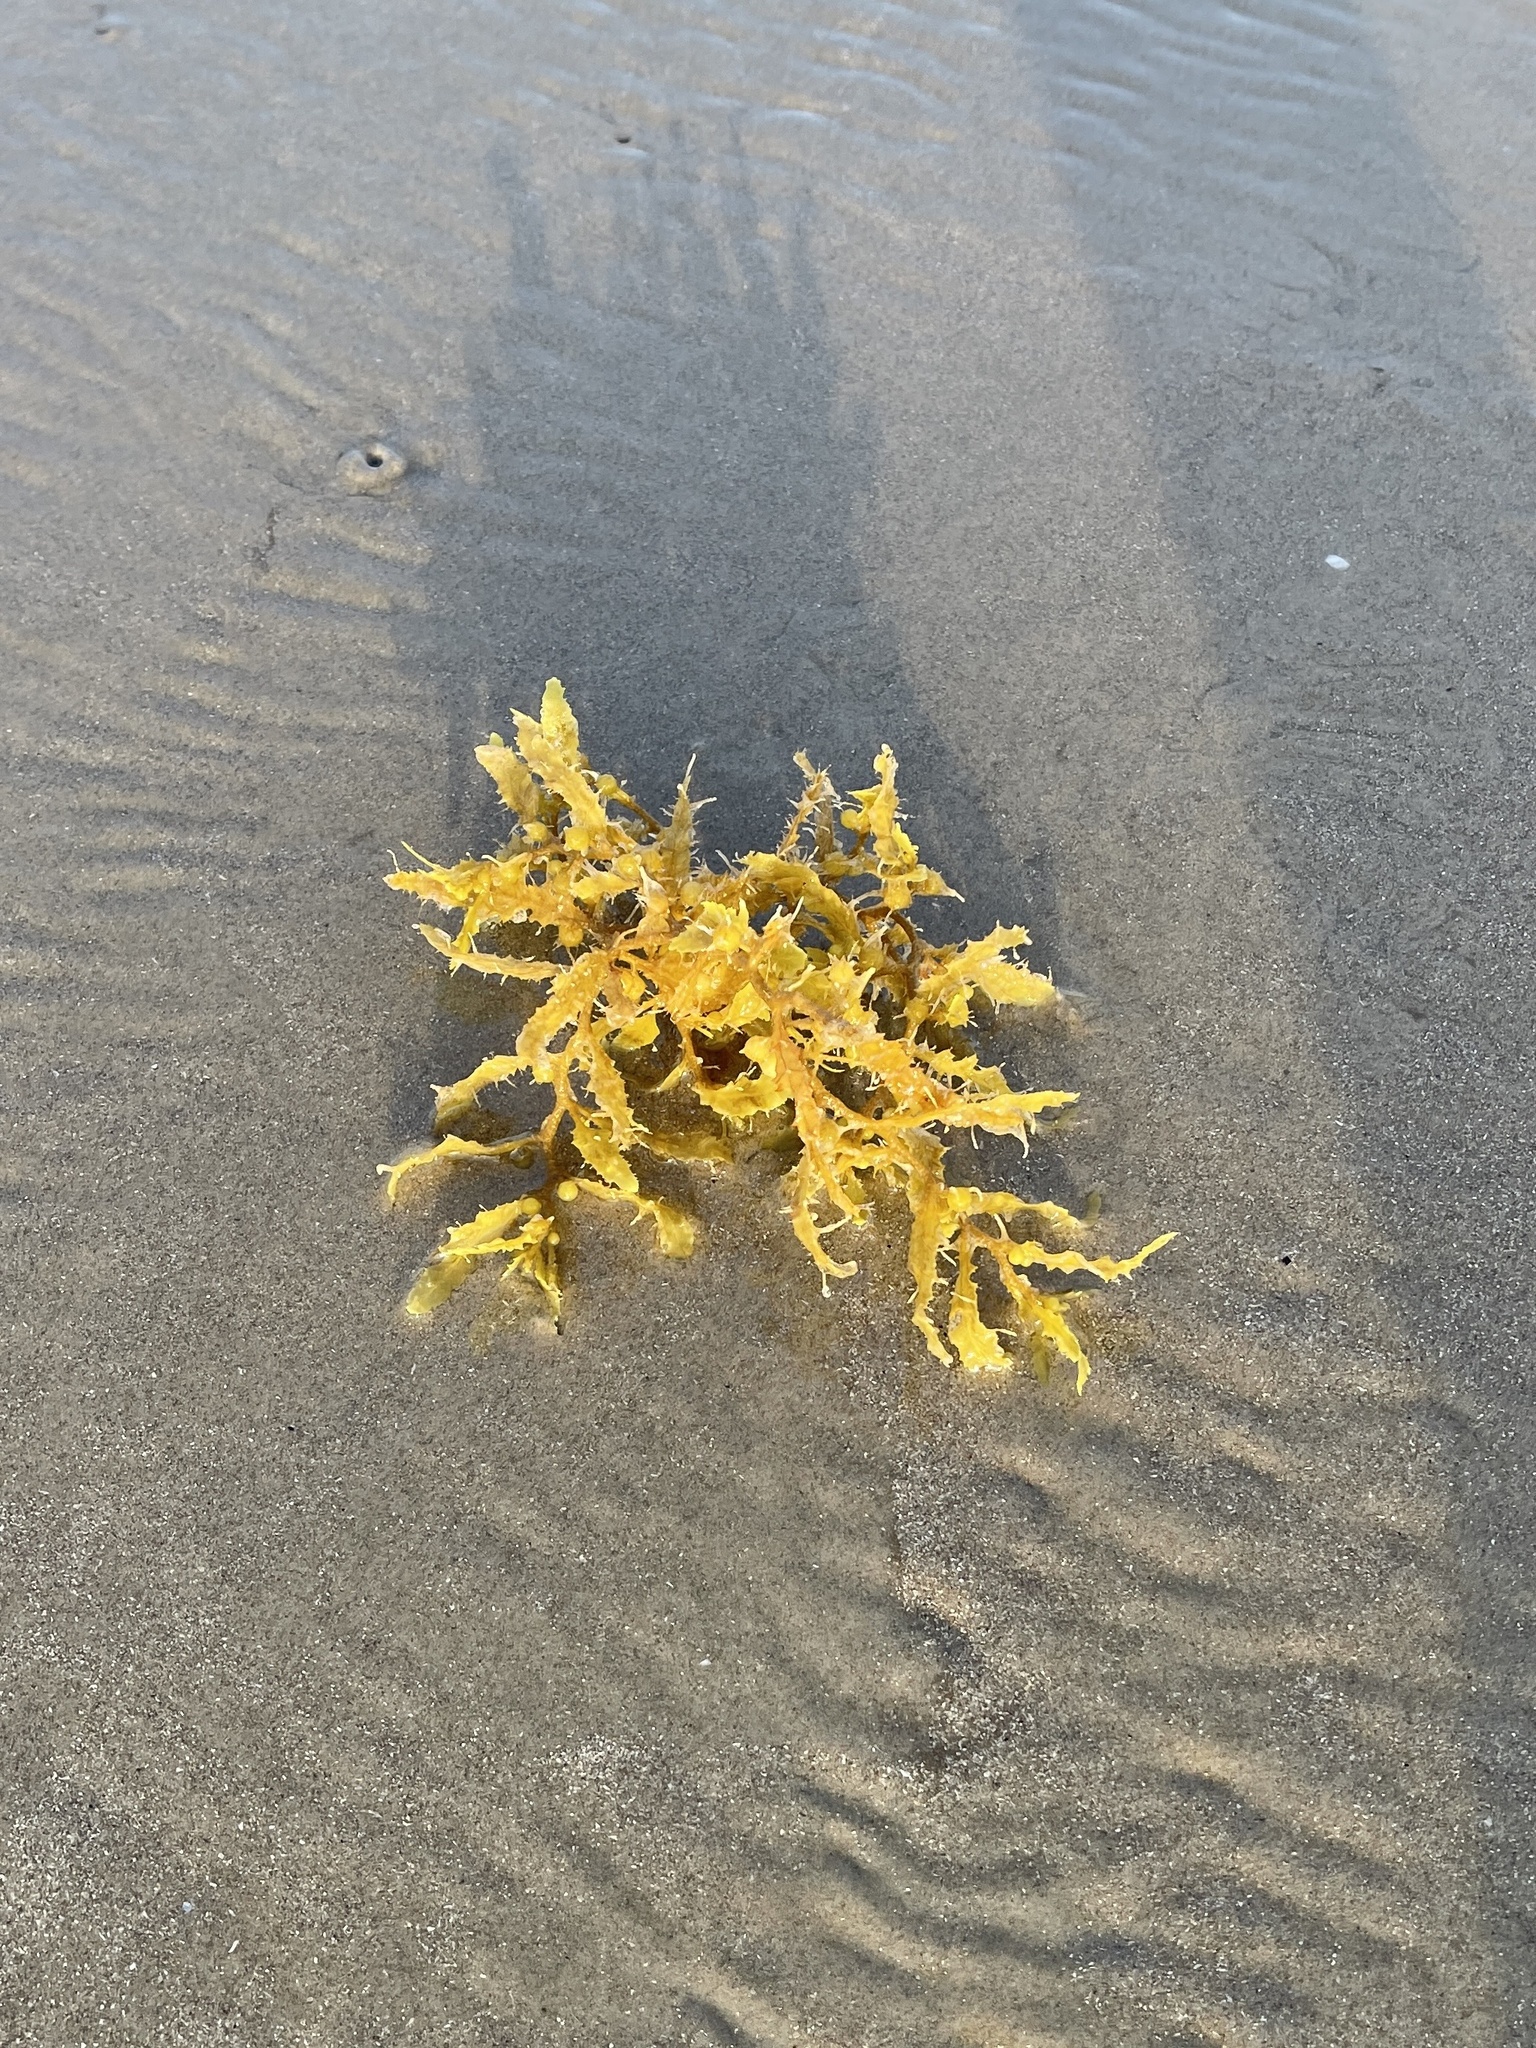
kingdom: Chromista
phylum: Ochrophyta
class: Phaeophyceae
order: Fucales
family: Sargassaceae
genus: Sargassum
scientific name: Sargassum fluitans
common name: Sargassum seaweed
